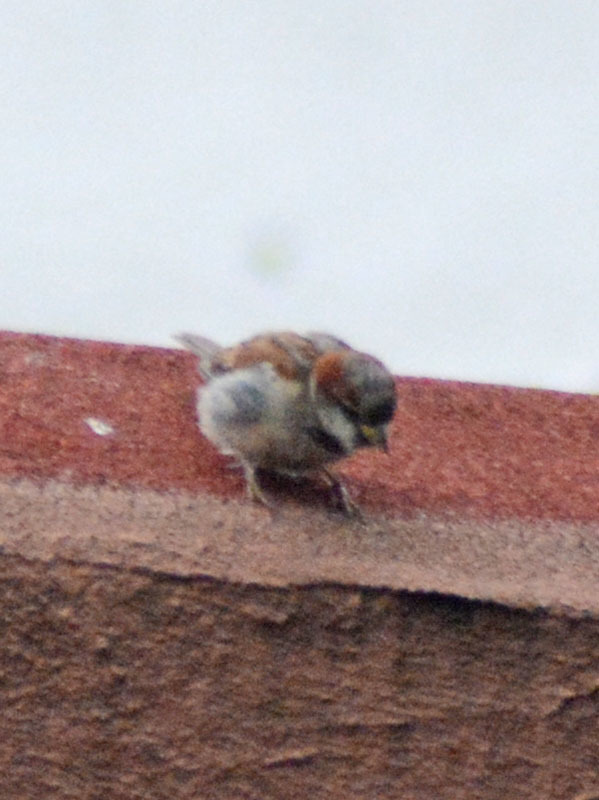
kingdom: Animalia
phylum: Chordata
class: Aves
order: Passeriformes
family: Passeridae
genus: Passer
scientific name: Passer domesticus
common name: House sparrow
